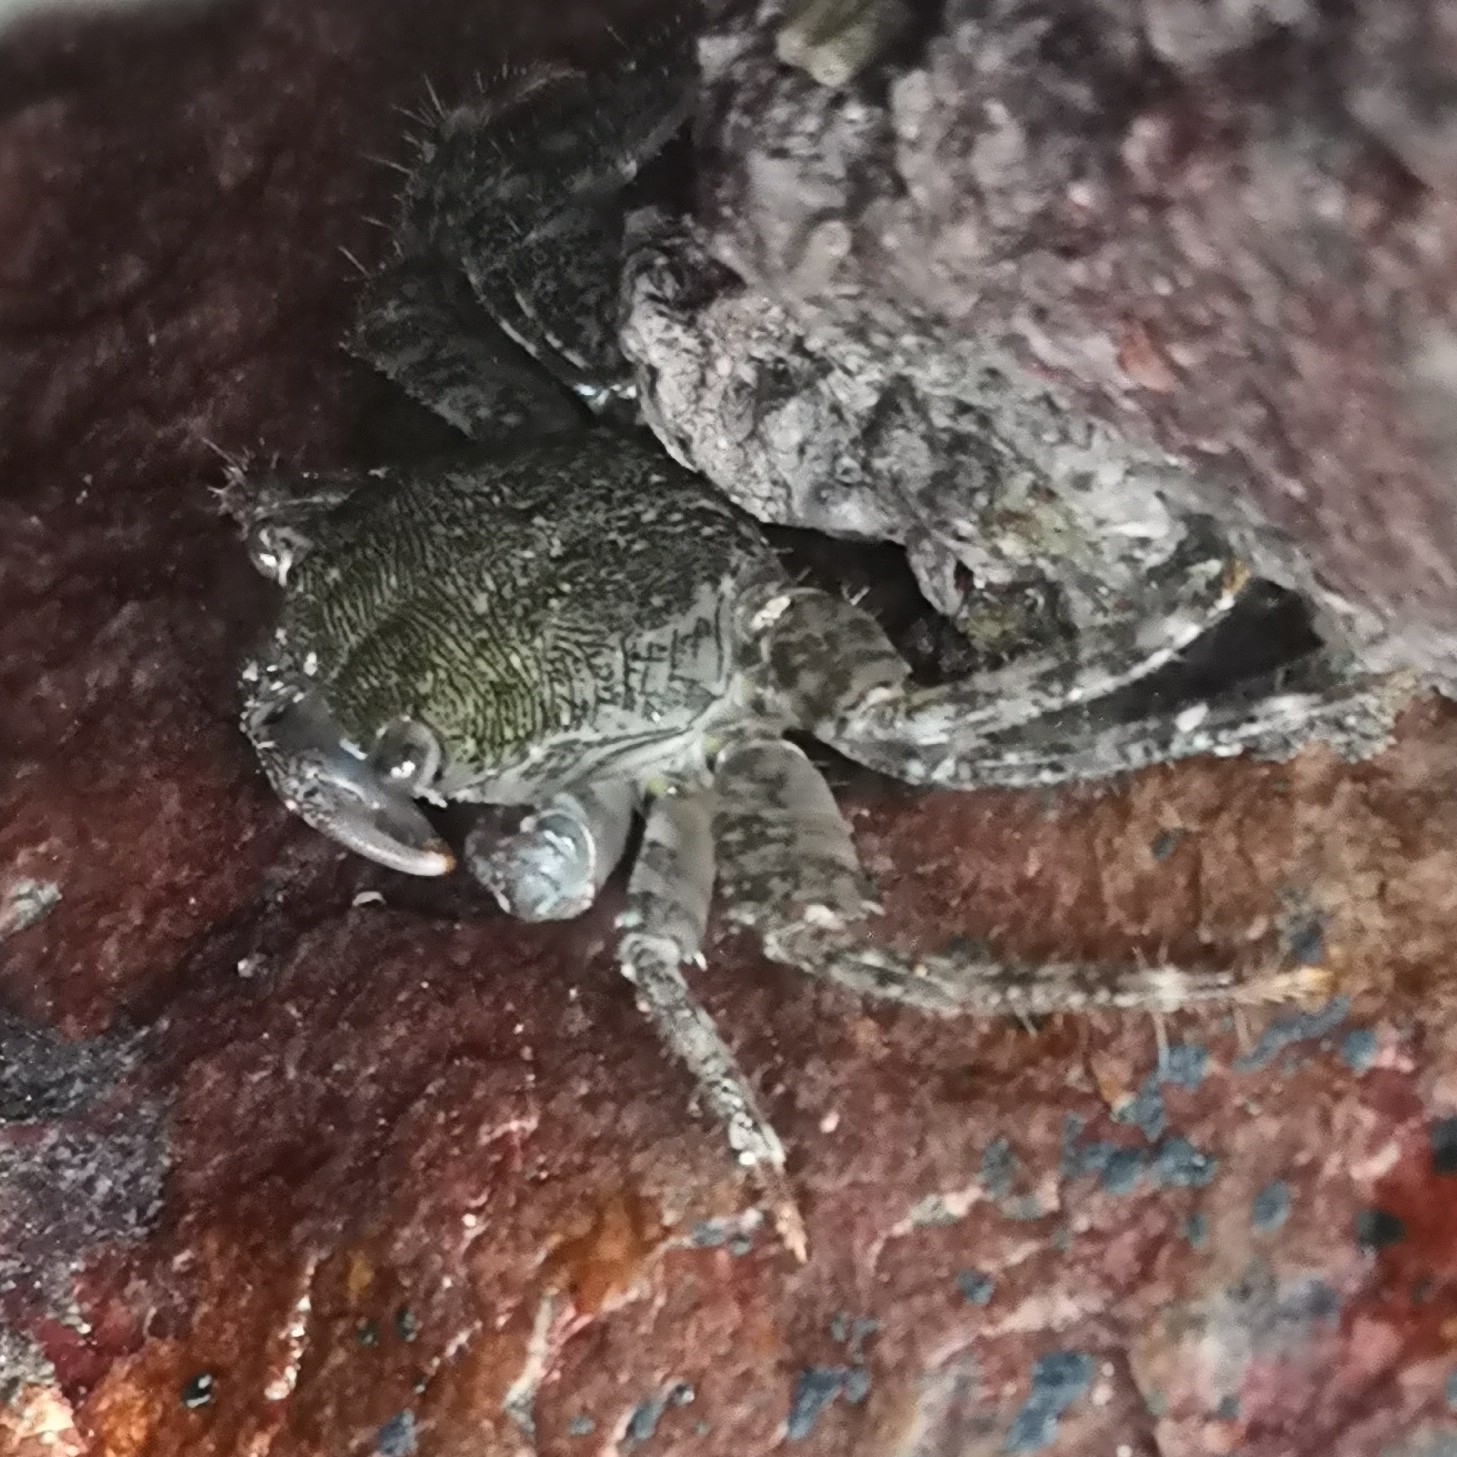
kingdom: Animalia
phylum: Arthropoda
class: Malacostraca
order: Decapoda
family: Grapsidae
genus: Pachygrapsus
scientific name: Pachygrapsus marmoratus
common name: Marbled rock crab
